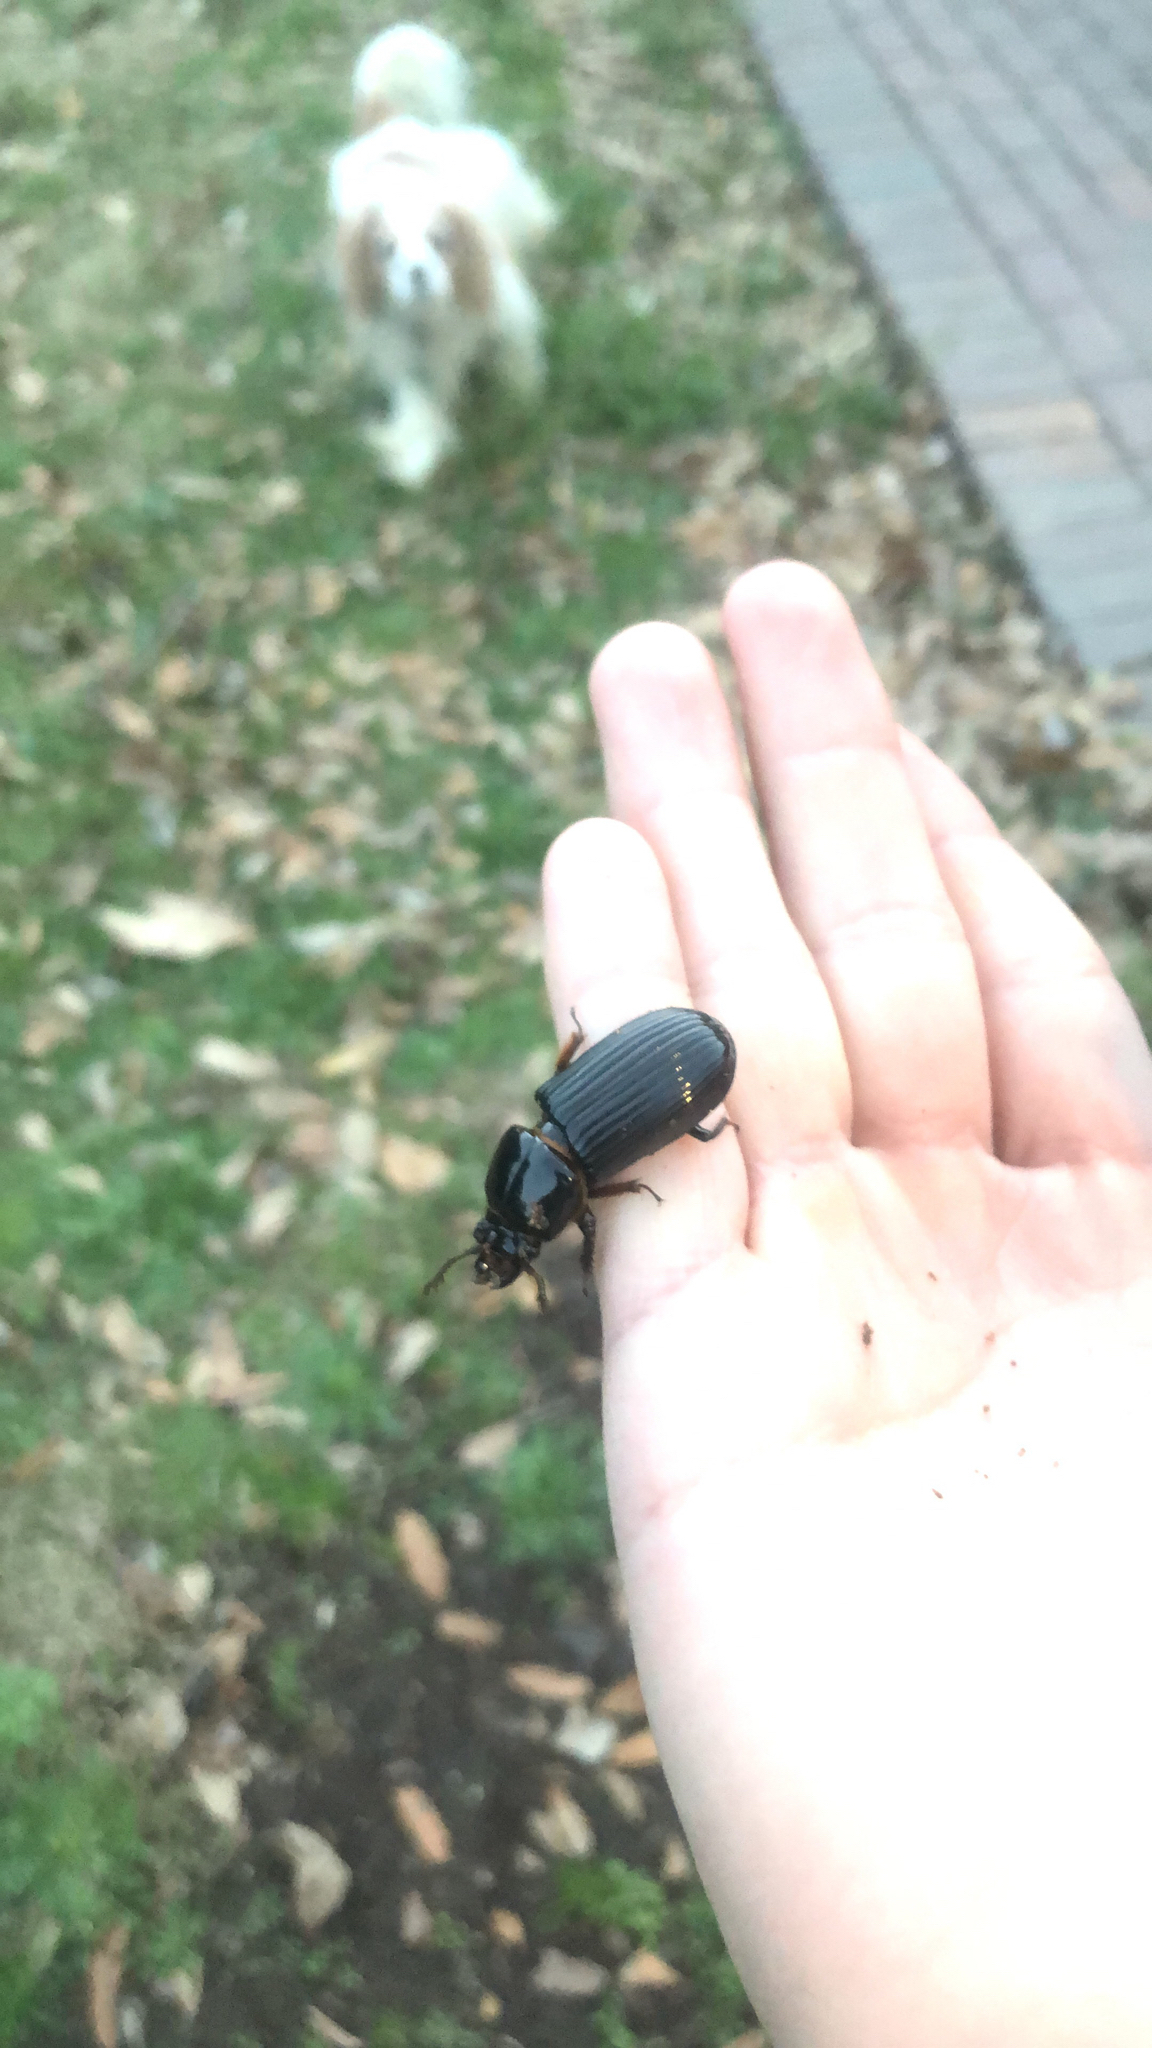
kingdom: Animalia
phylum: Arthropoda
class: Insecta
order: Coleoptera
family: Passalidae
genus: Odontotaenius
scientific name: Odontotaenius disjunctus
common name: Patent leather beetle
